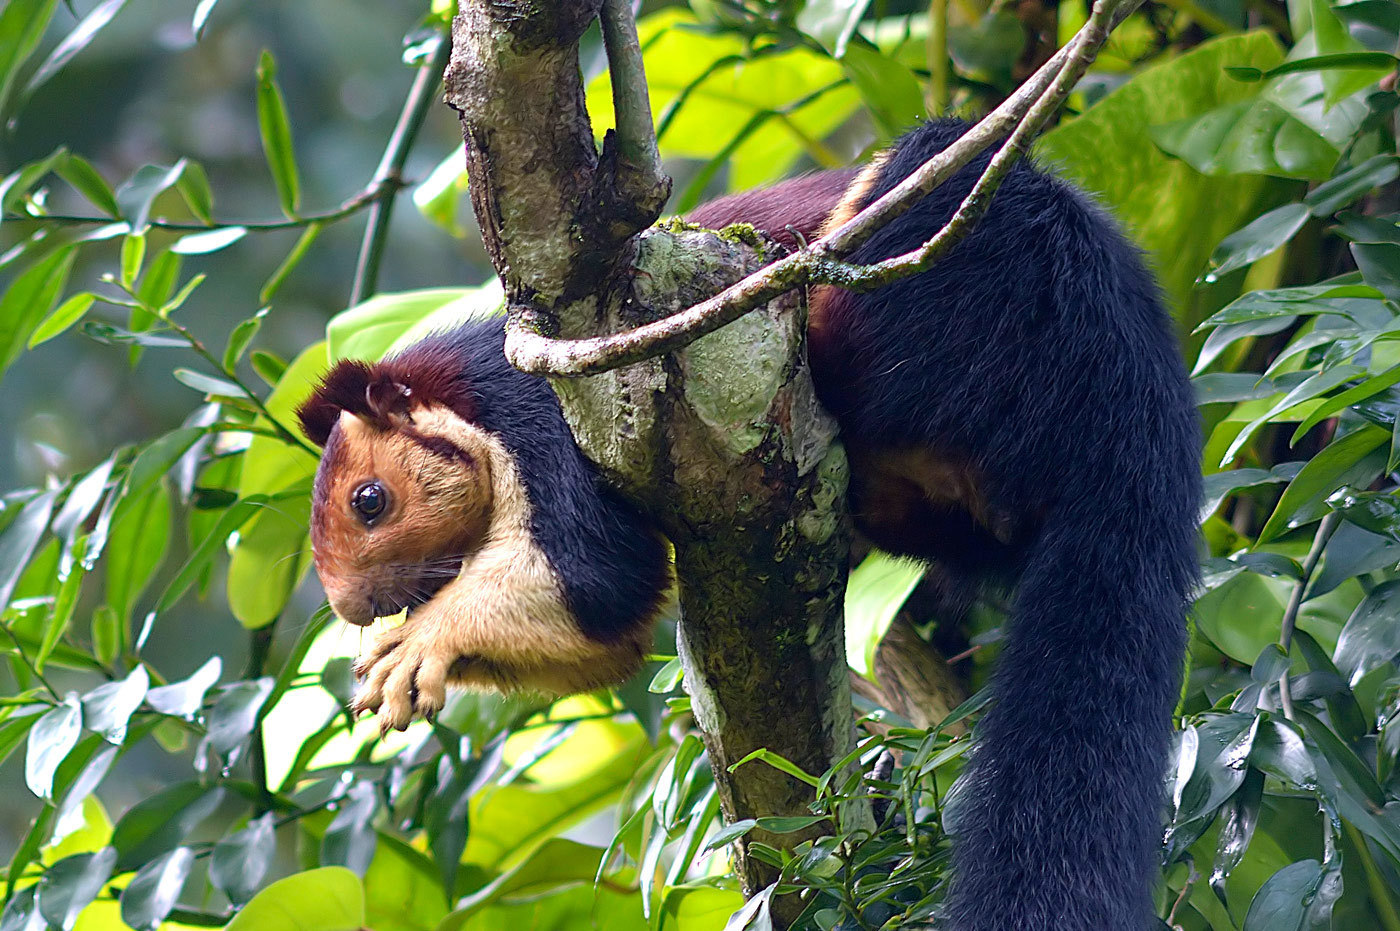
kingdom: Animalia
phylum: Chordata
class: Mammalia
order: Rodentia
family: Sciuridae
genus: Ratufa
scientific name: Ratufa indica
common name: Indian giant squirrel
